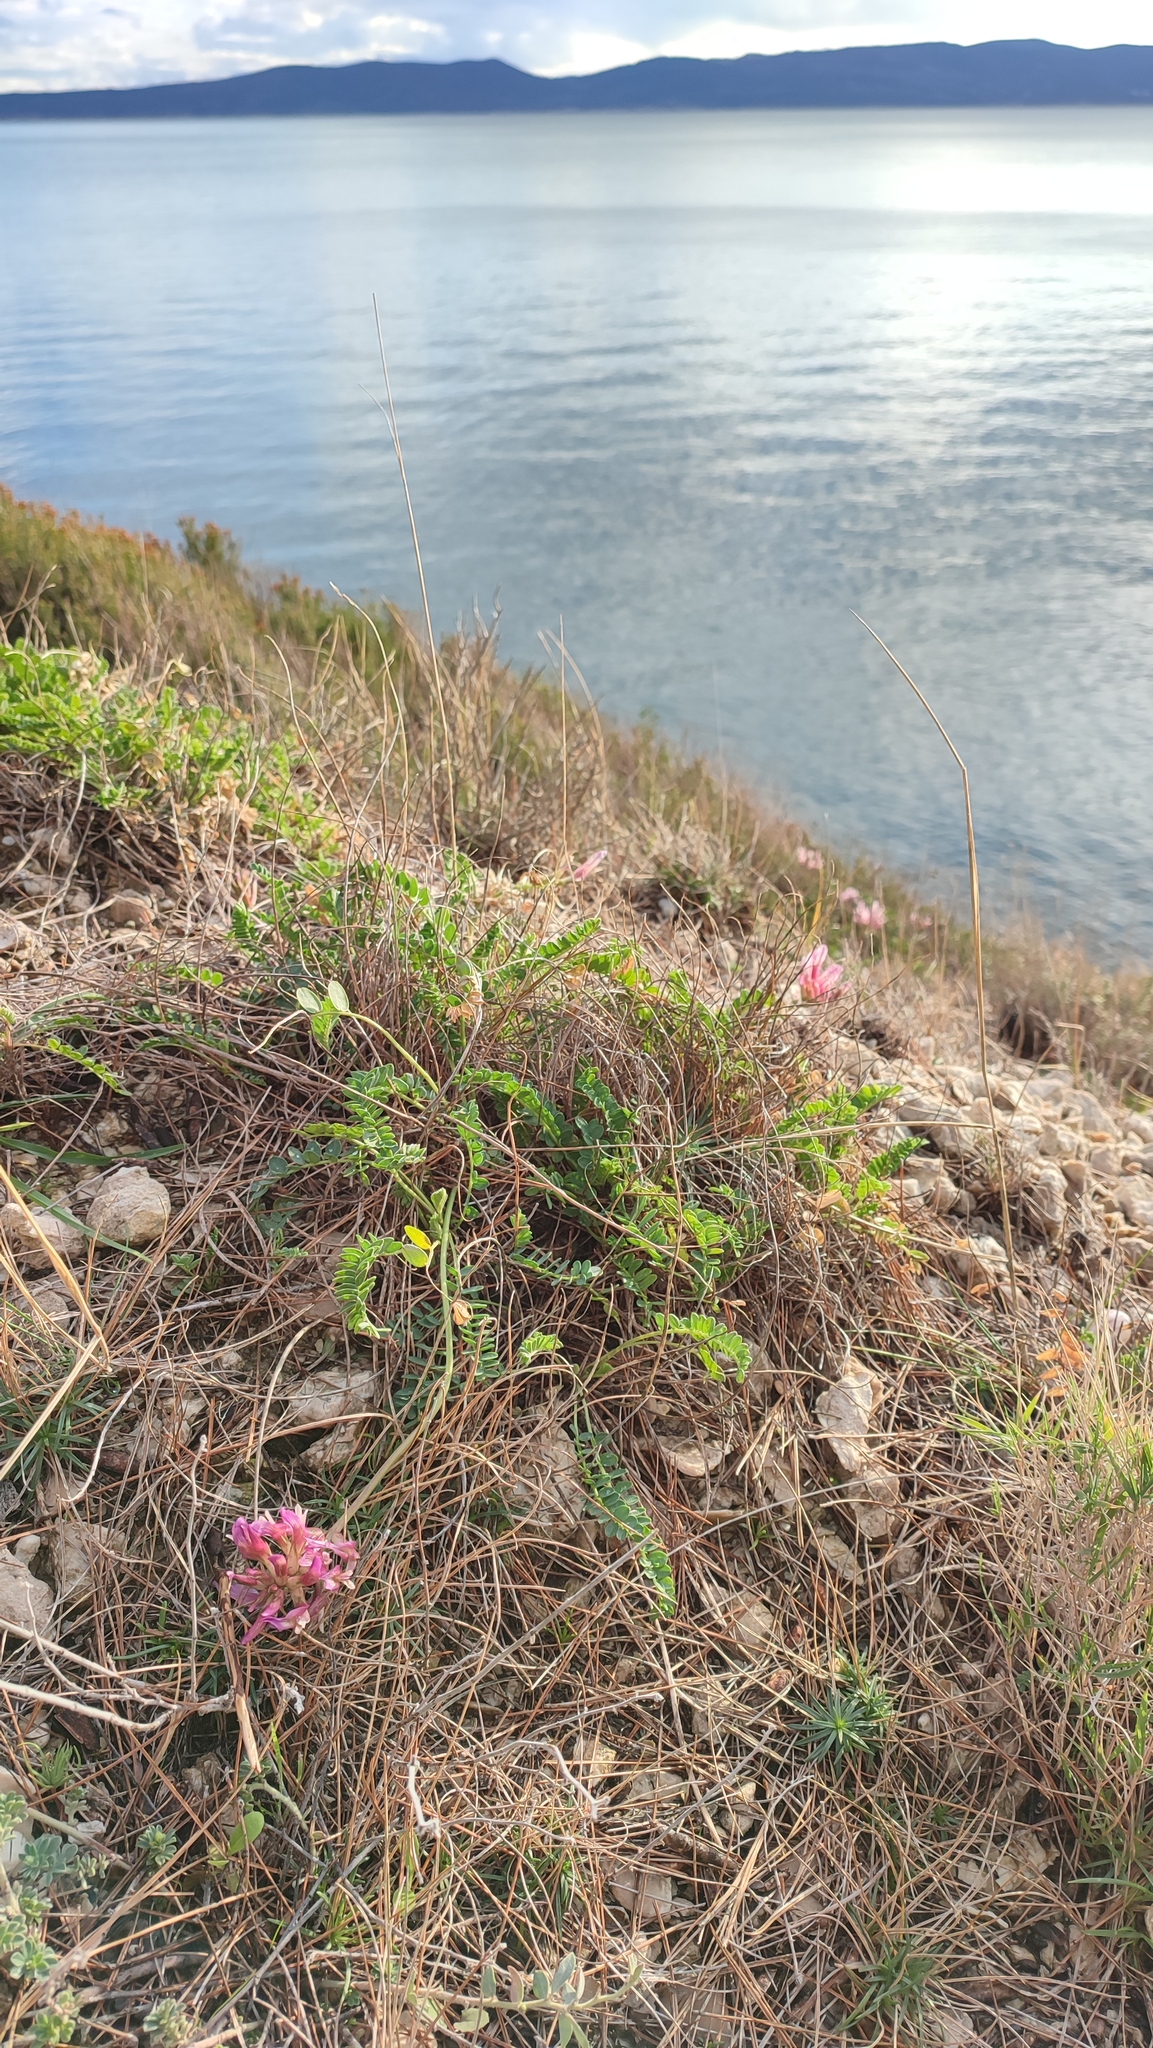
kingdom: Plantae
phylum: Tracheophyta
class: Magnoliopsida
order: Fabales
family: Fabaceae
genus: Astragalus
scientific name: Astragalus monspessulanus
